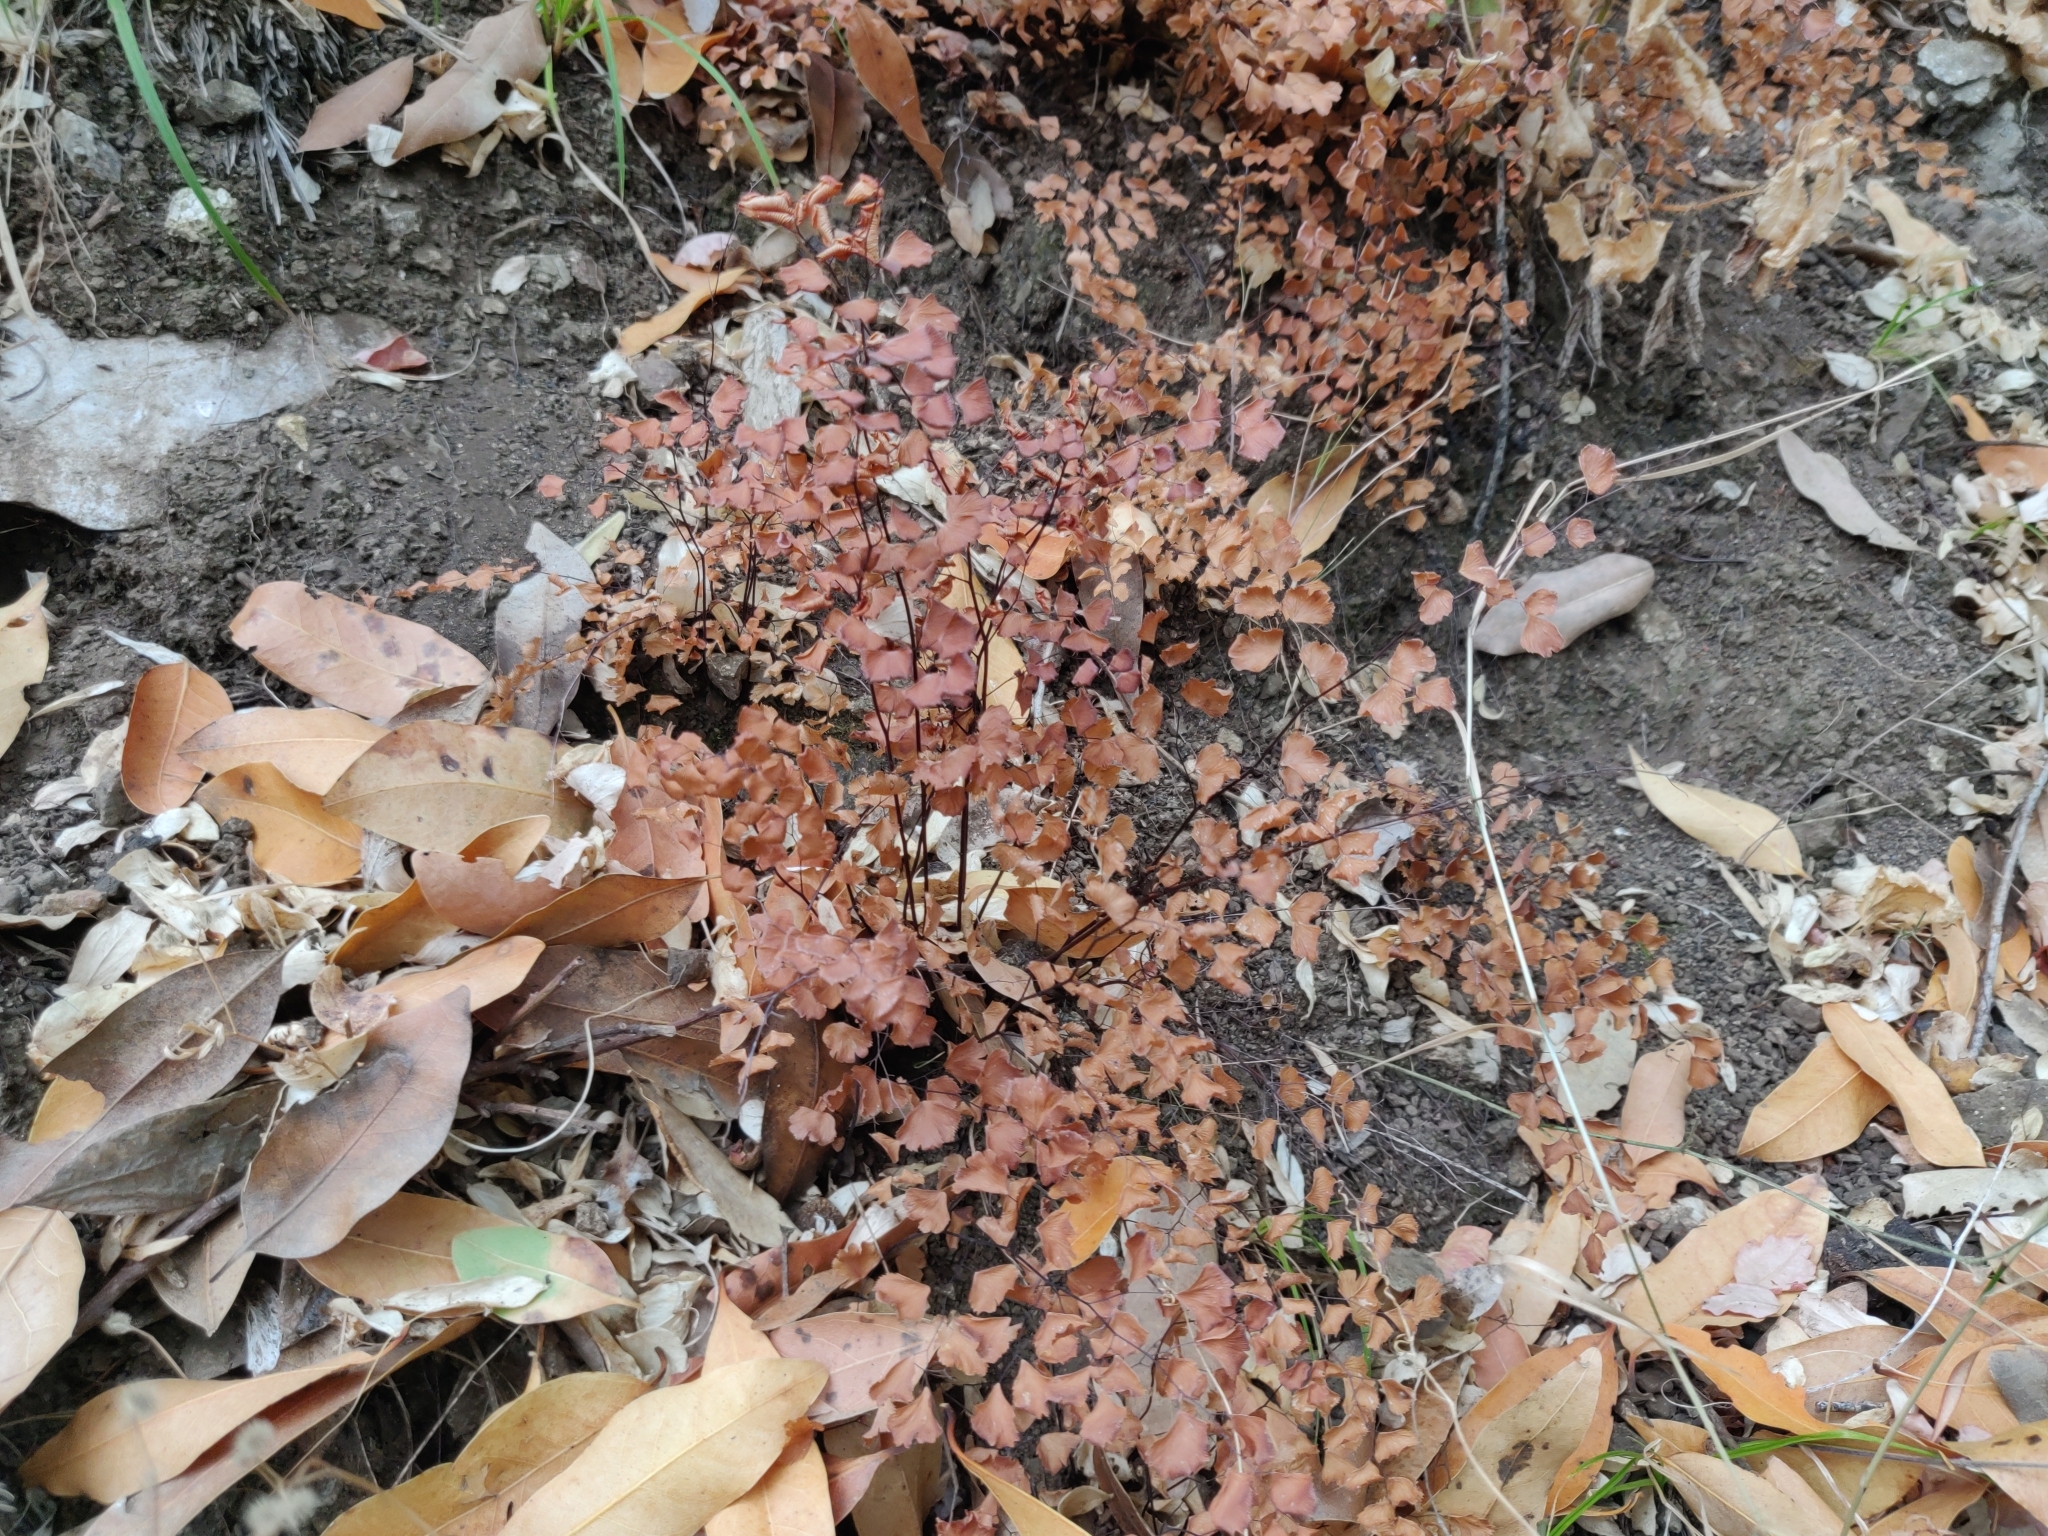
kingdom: Plantae
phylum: Tracheophyta
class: Polypodiopsida
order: Polypodiales
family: Pteridaceae
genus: Adiantum
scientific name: Adiantum jordanii
